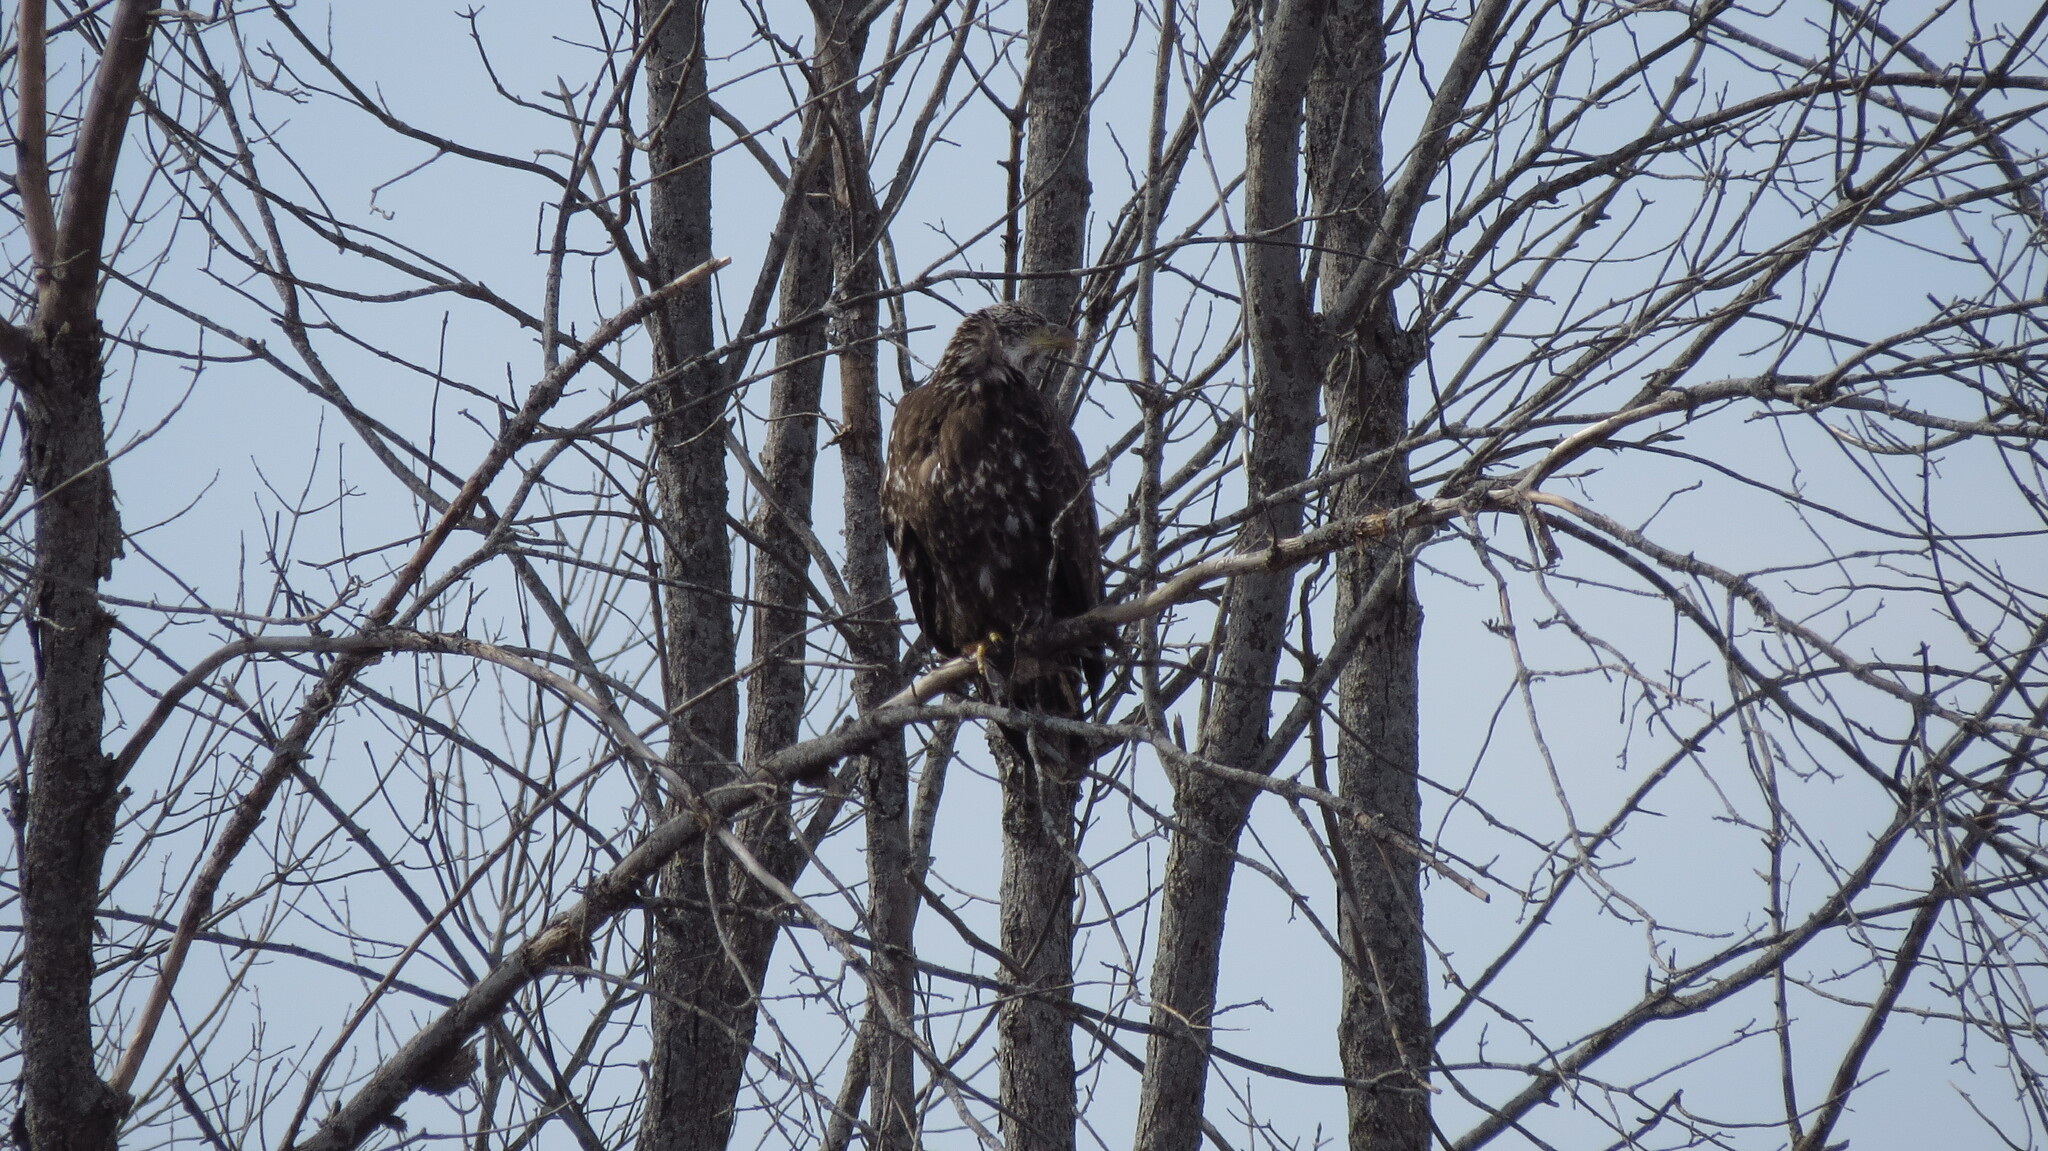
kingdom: Animalia
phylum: Chordata
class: Aves
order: Accipitriformes
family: Accipitridae
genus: Haliaeetus
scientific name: Haliaeetus leucocephalus
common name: Bald eagle
